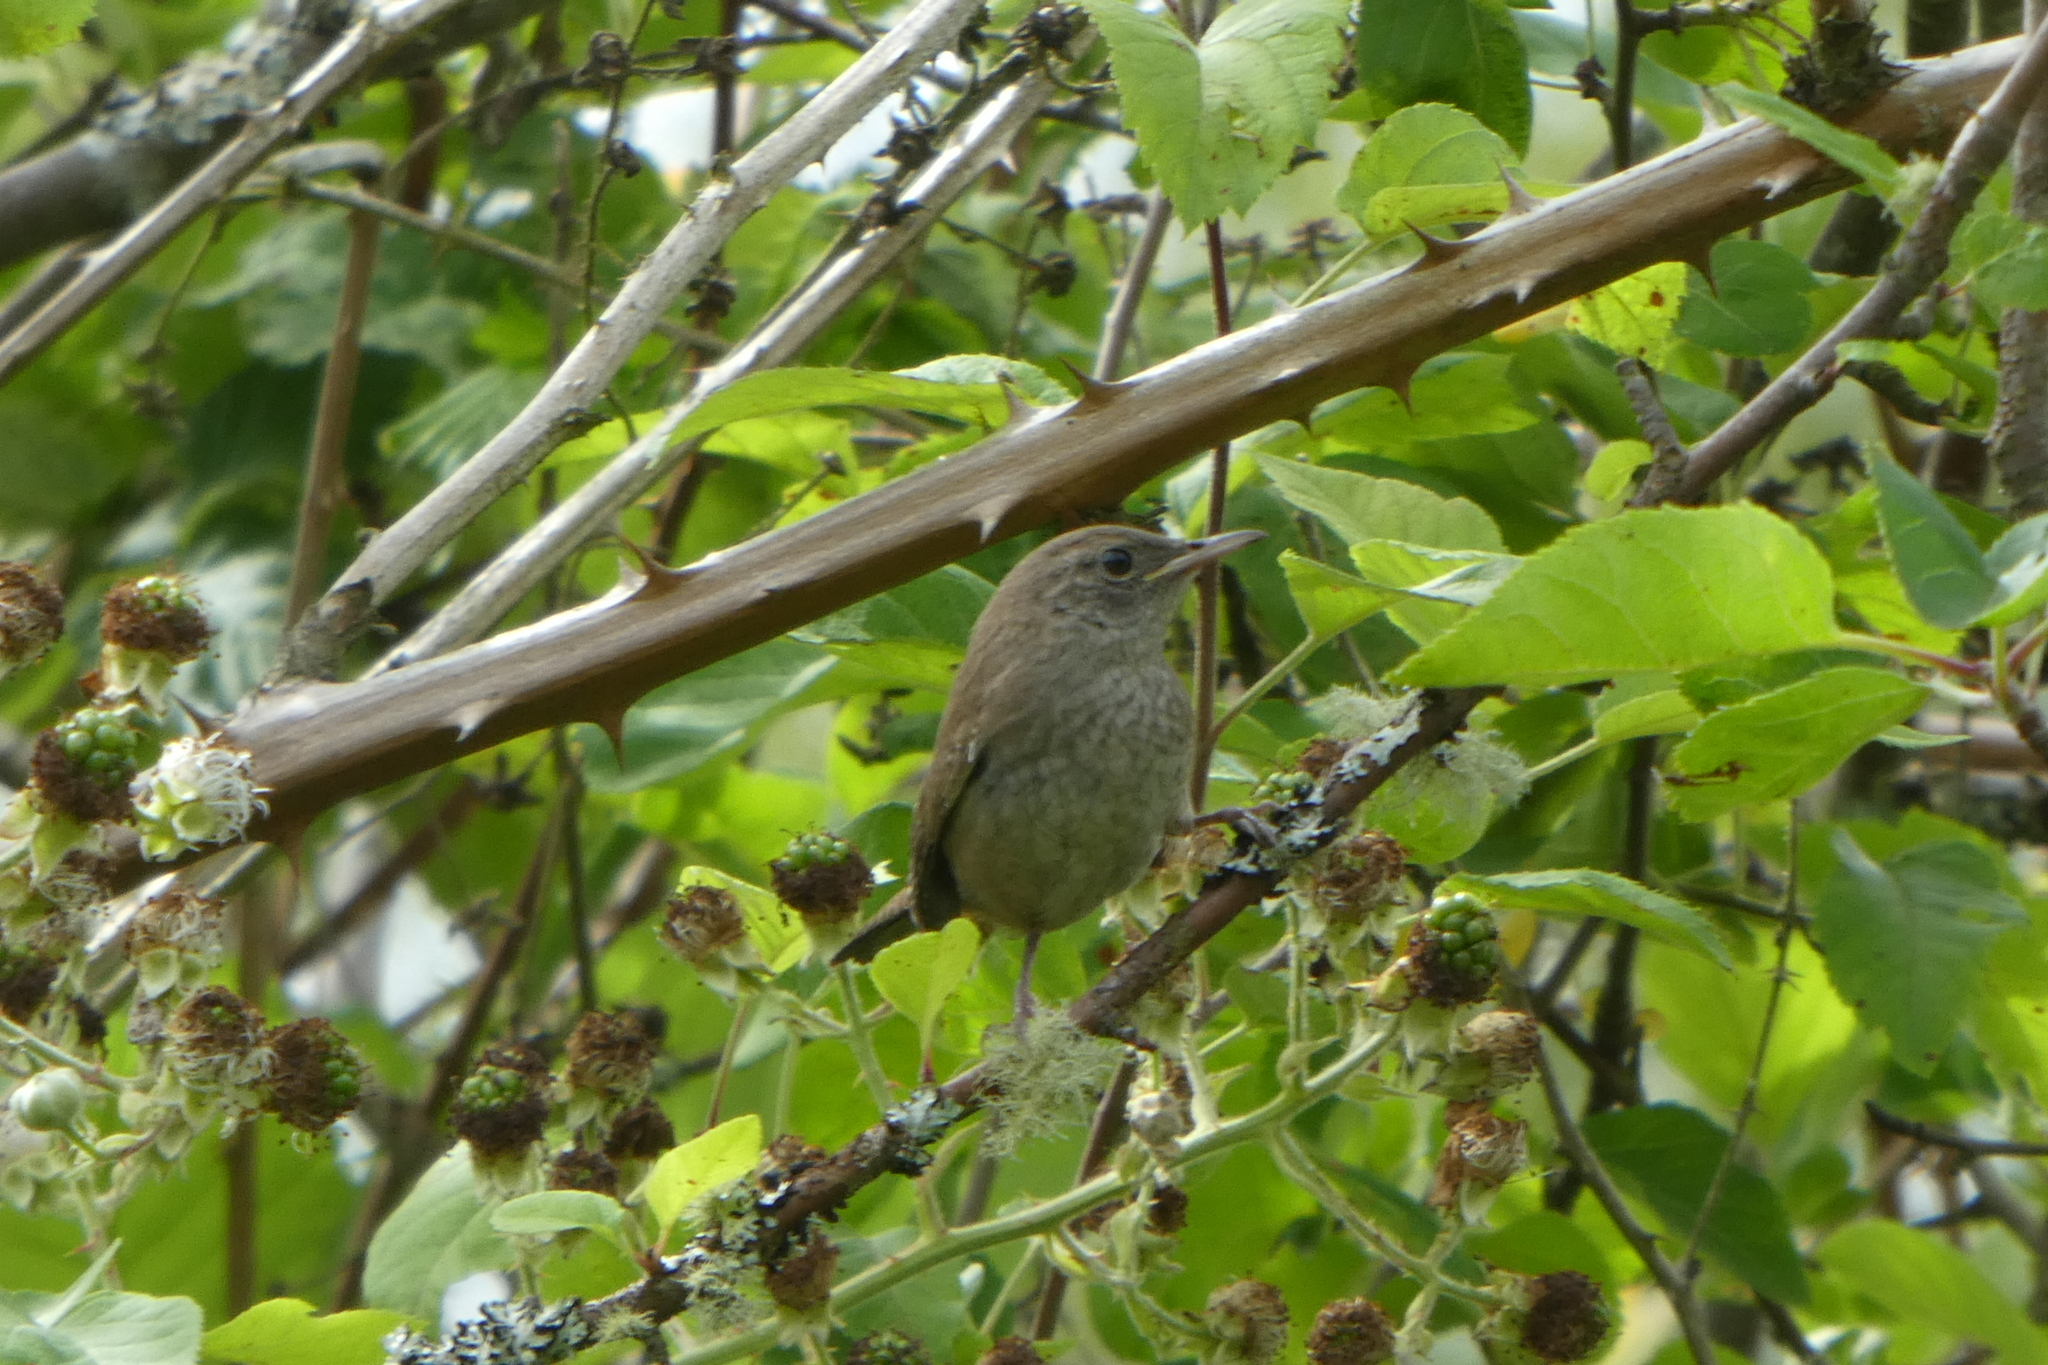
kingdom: Animalia
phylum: Chordata
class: Aves
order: Passeriformes
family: Troglodytidae
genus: Troglodytes
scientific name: Troglodytes aedon
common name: House wren
